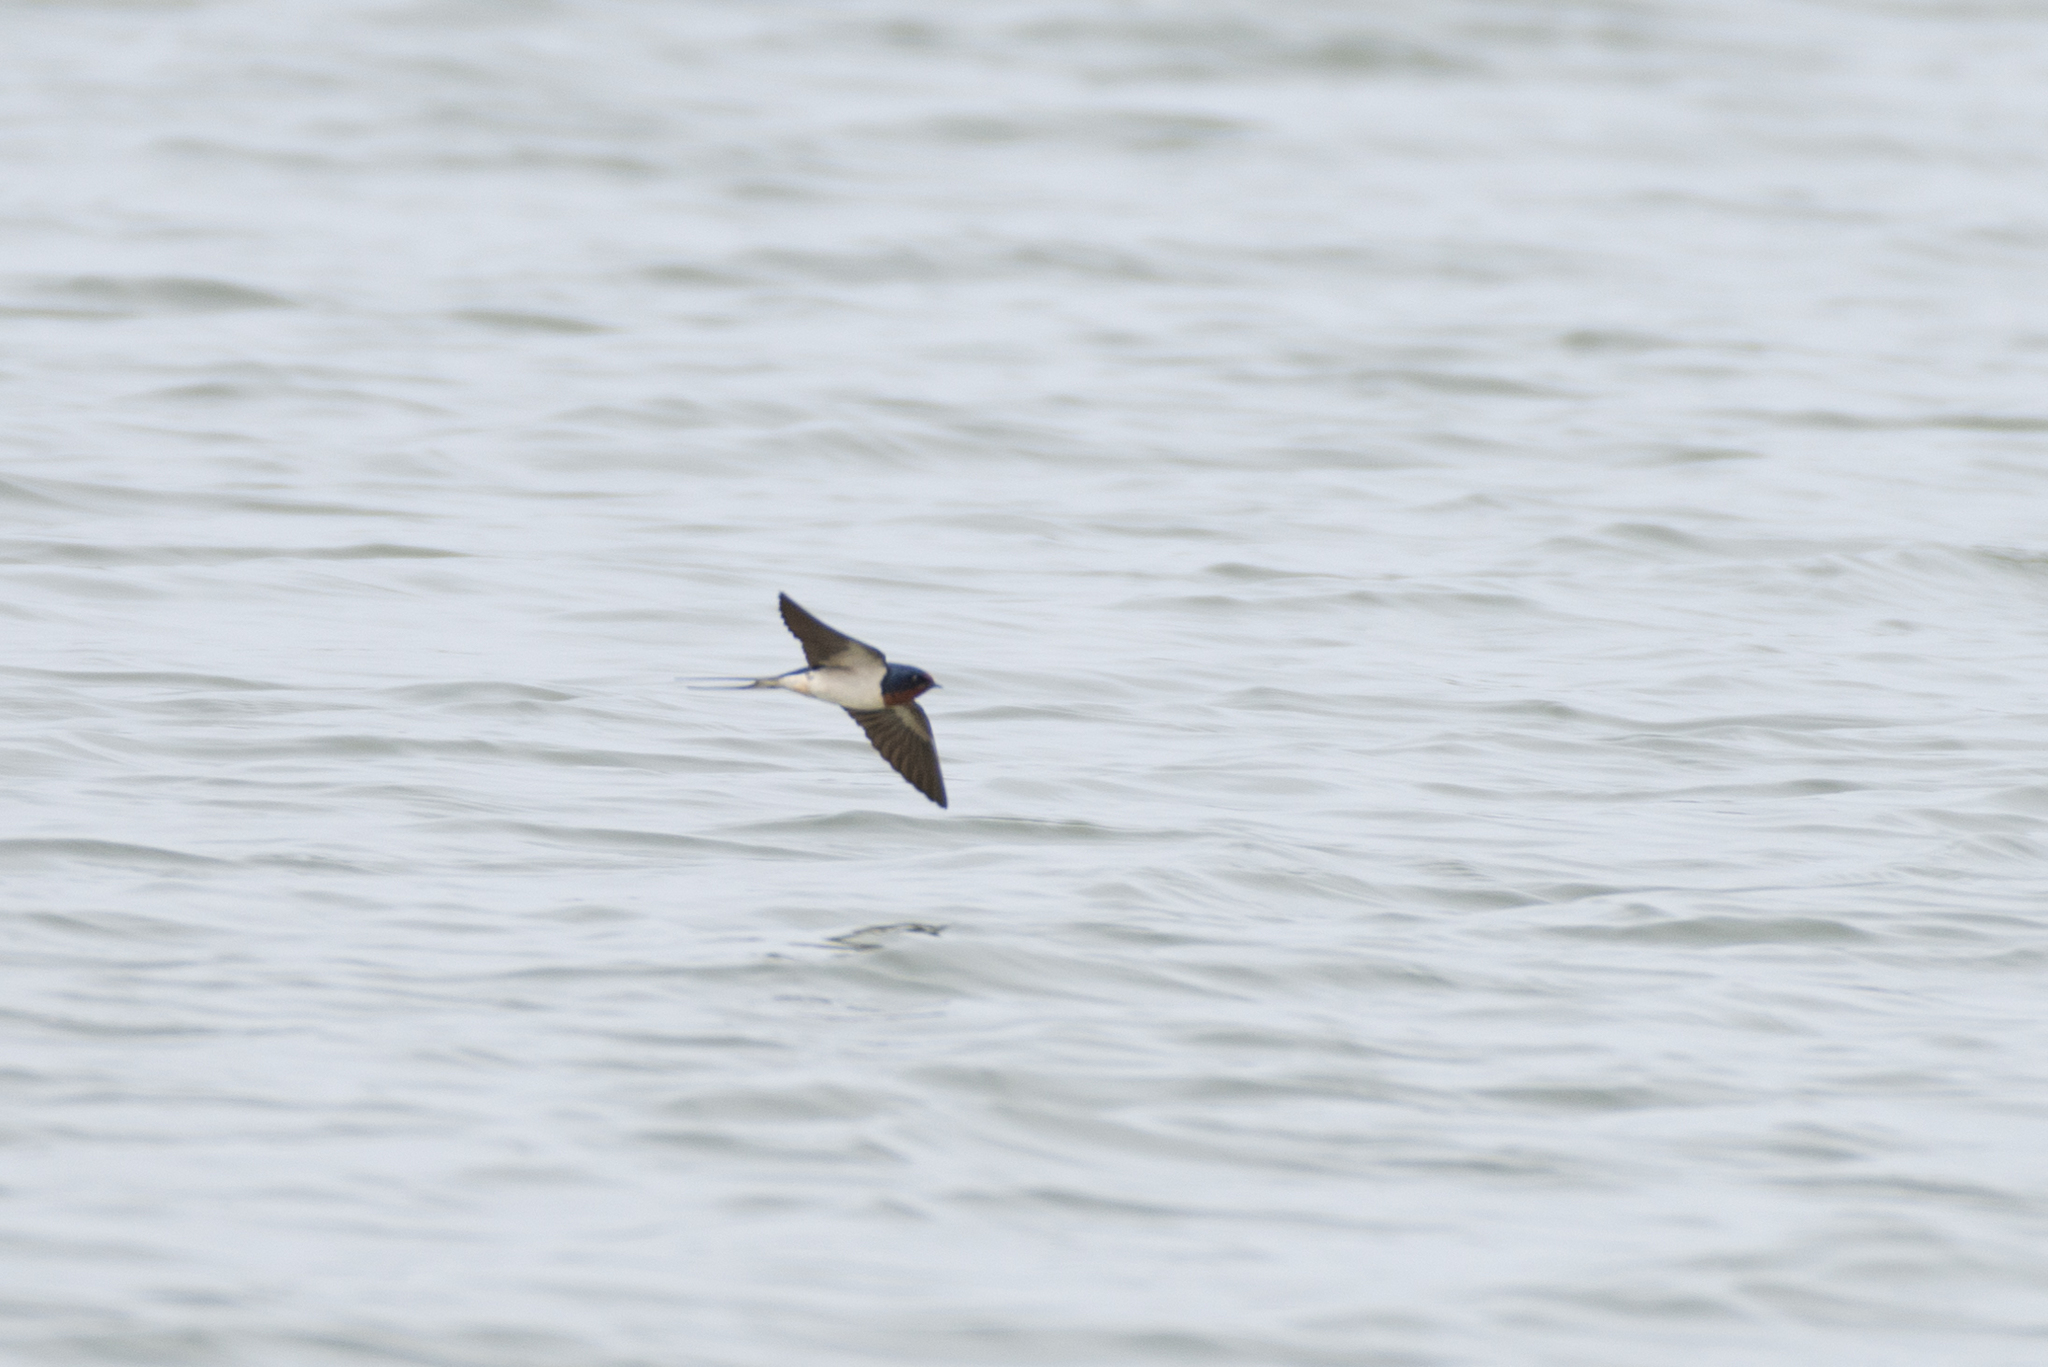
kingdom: Animalia
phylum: Chordata
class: Aves
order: Passeriformes
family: Hirundinidae
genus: Hirundo
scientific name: Hirundo rustica
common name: Barn swallow
